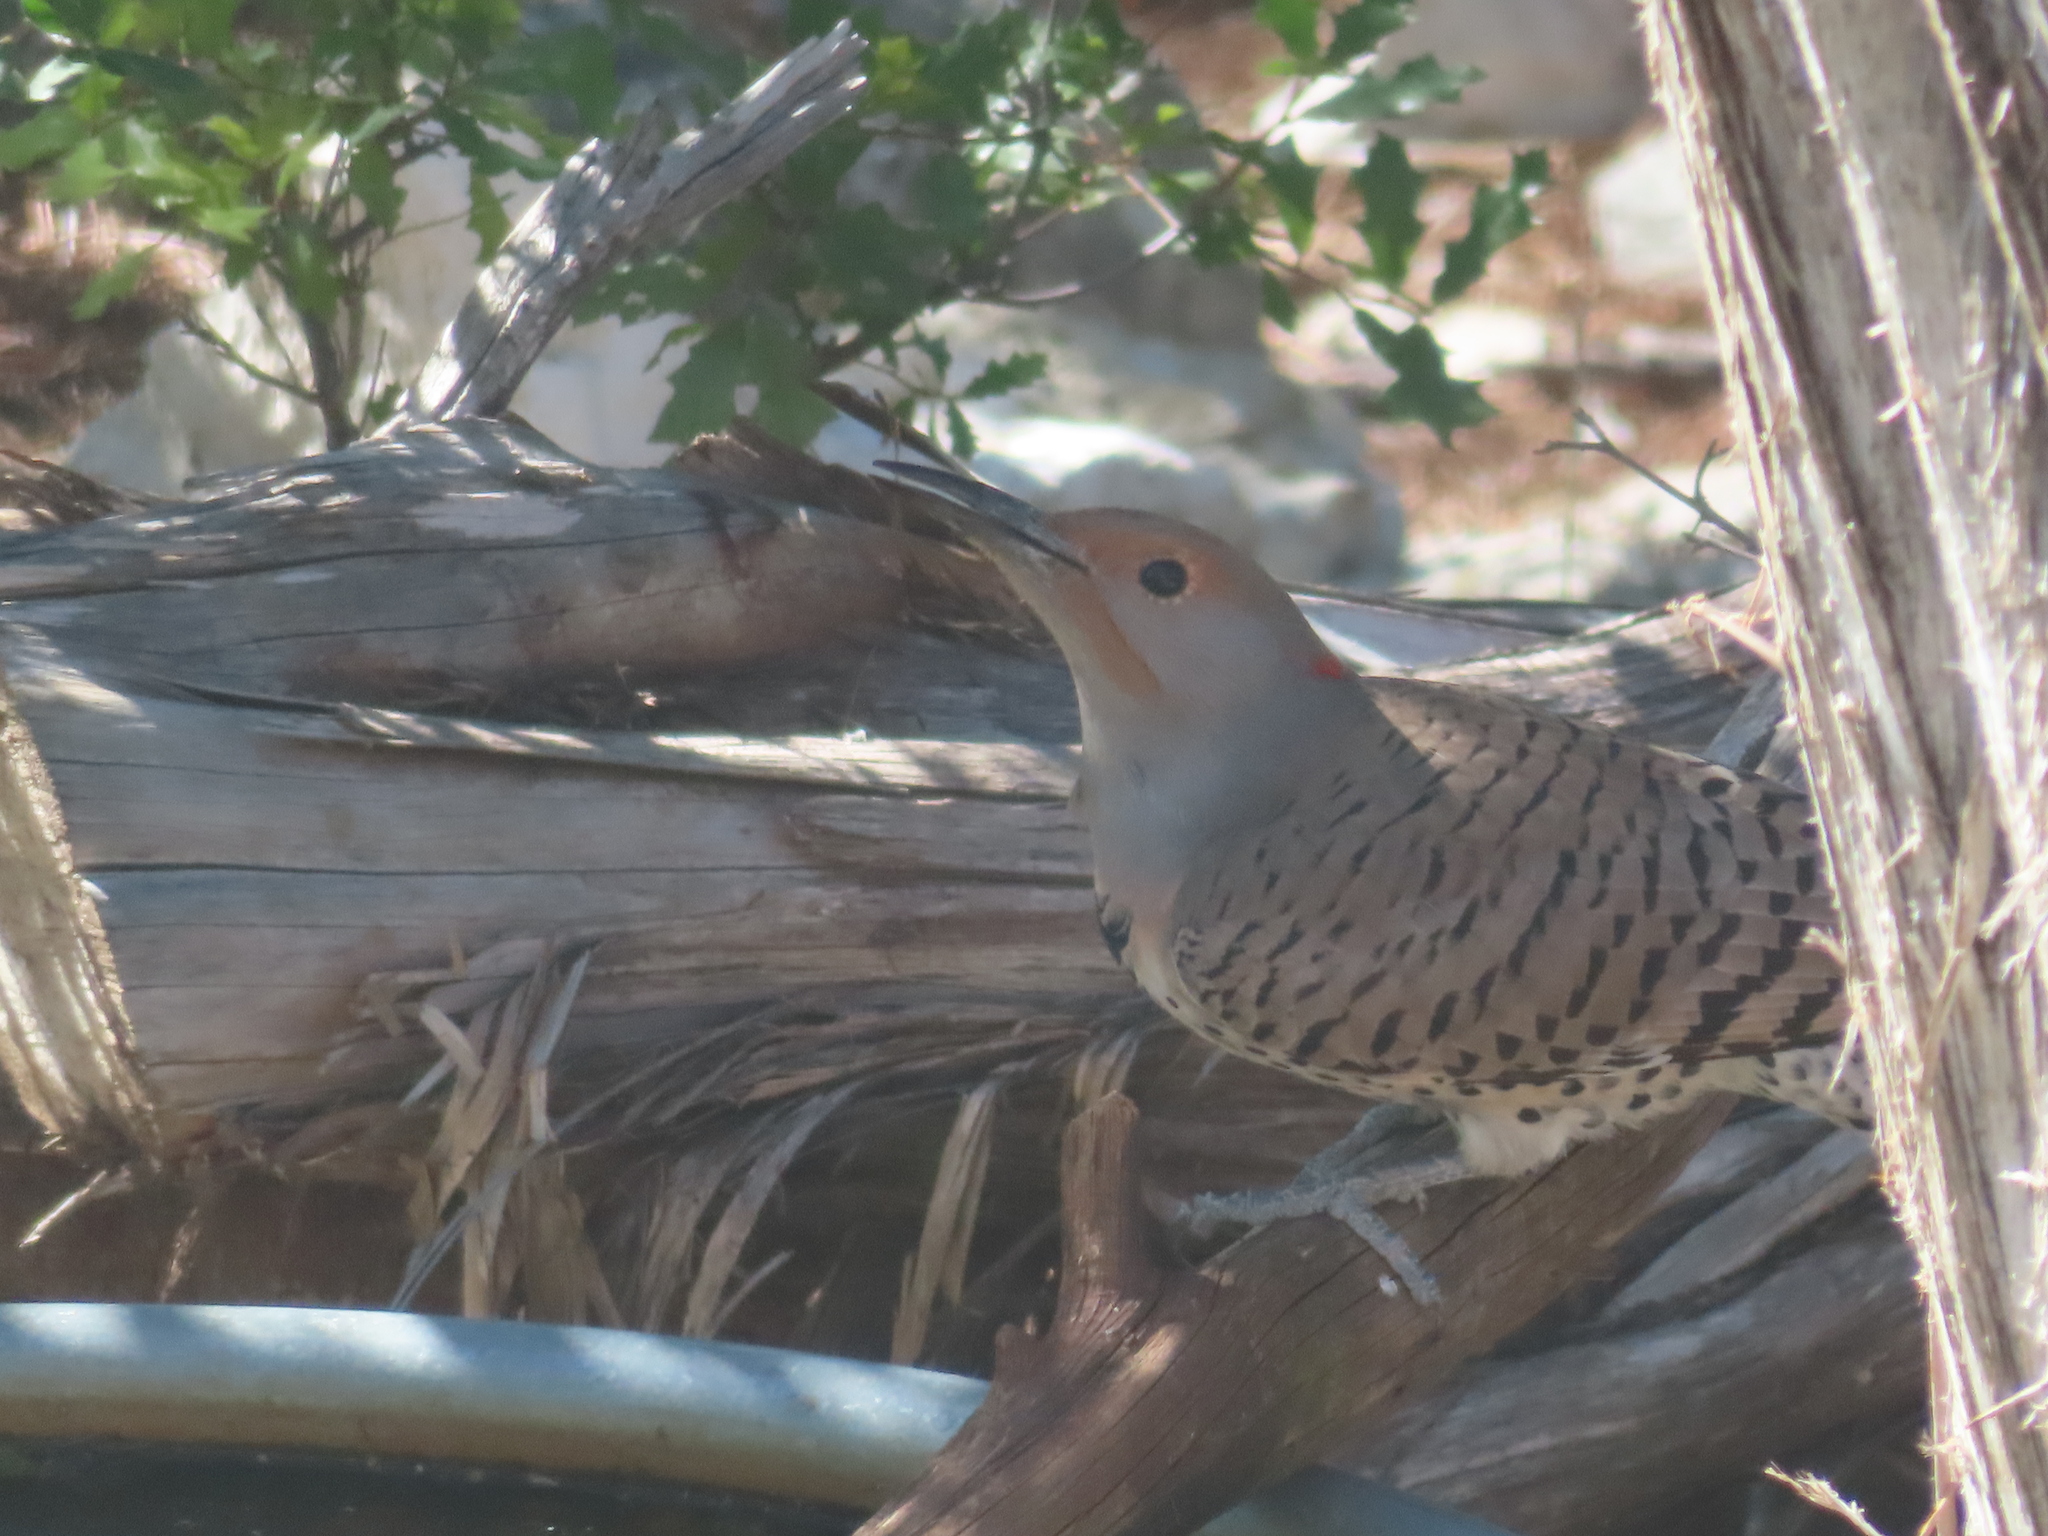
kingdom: Animalia
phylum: Chordata
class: Aves
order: Piciformes
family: Picidae
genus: Colaptes
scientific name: Colaptes auratus
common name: Northern flicker
